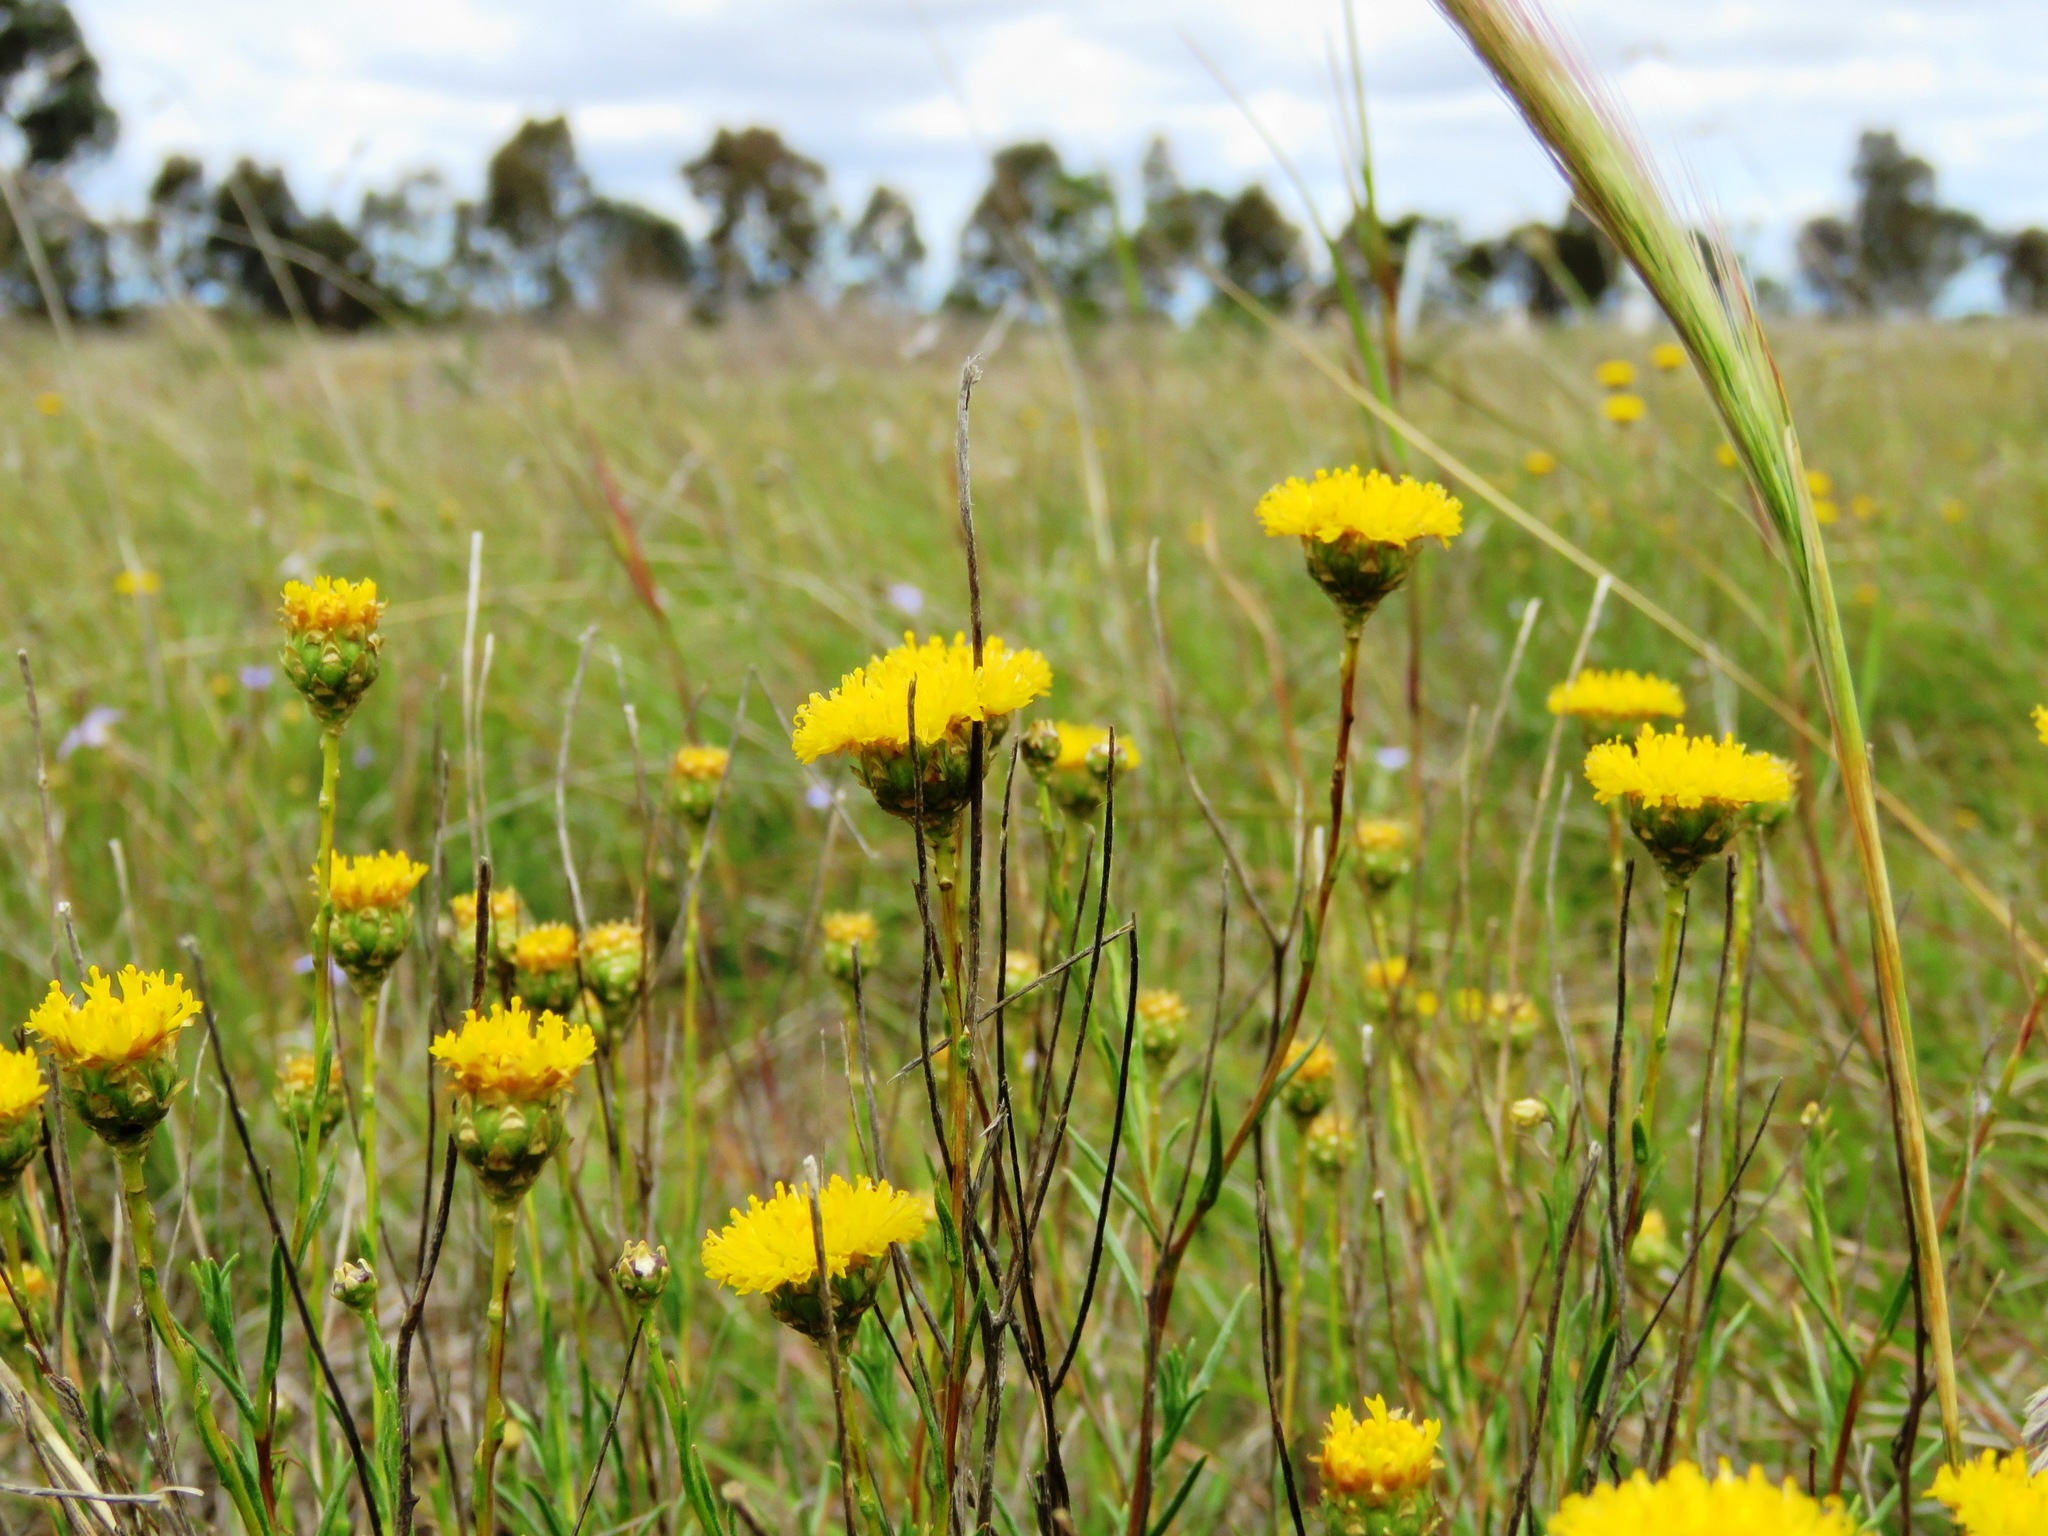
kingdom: Plantae
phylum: Tracheophyta
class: Magnoliopsida
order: Asterales
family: Asteraceae
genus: Rutidosis
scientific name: Rutidosis leptorrhynchoides
